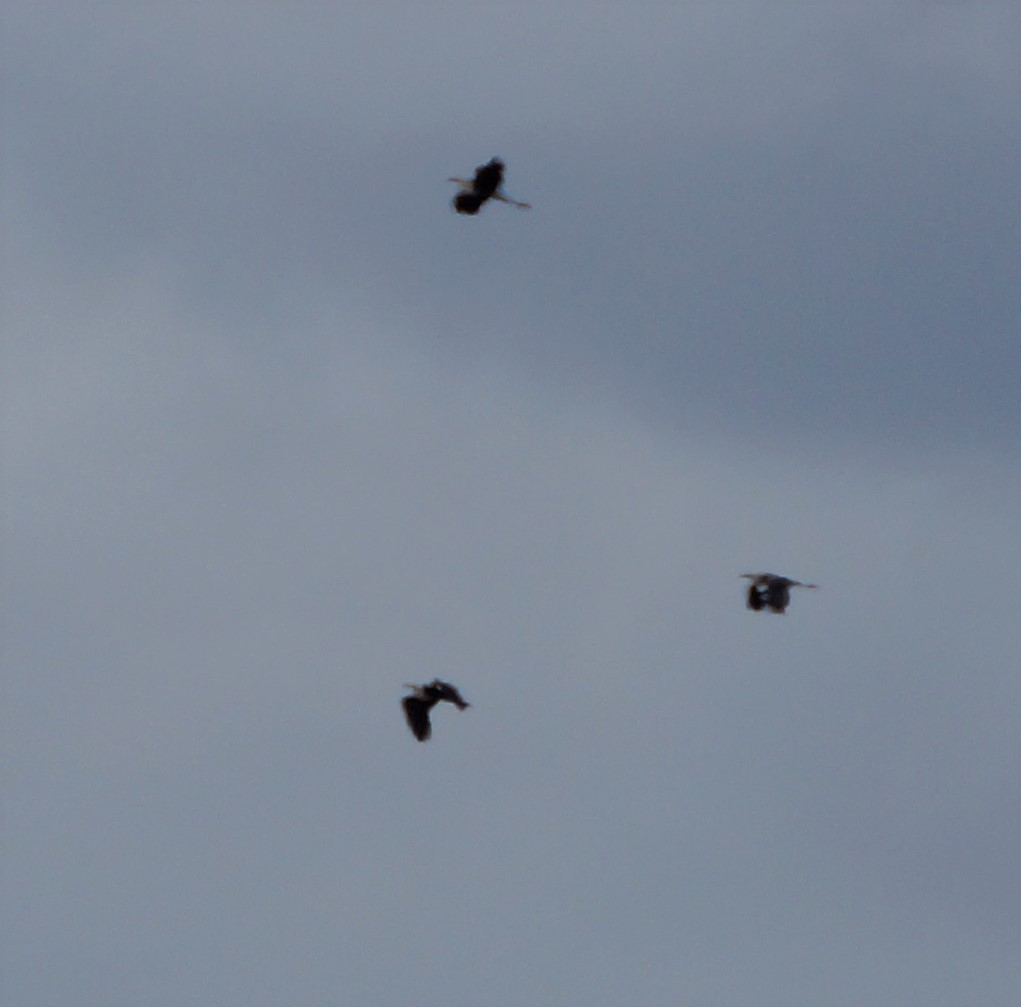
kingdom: Animalia
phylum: Chordata
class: Aves
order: Pelecaniformes
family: Ardeidae
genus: Ardea
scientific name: Ardea pacifica
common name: White-necked heron
